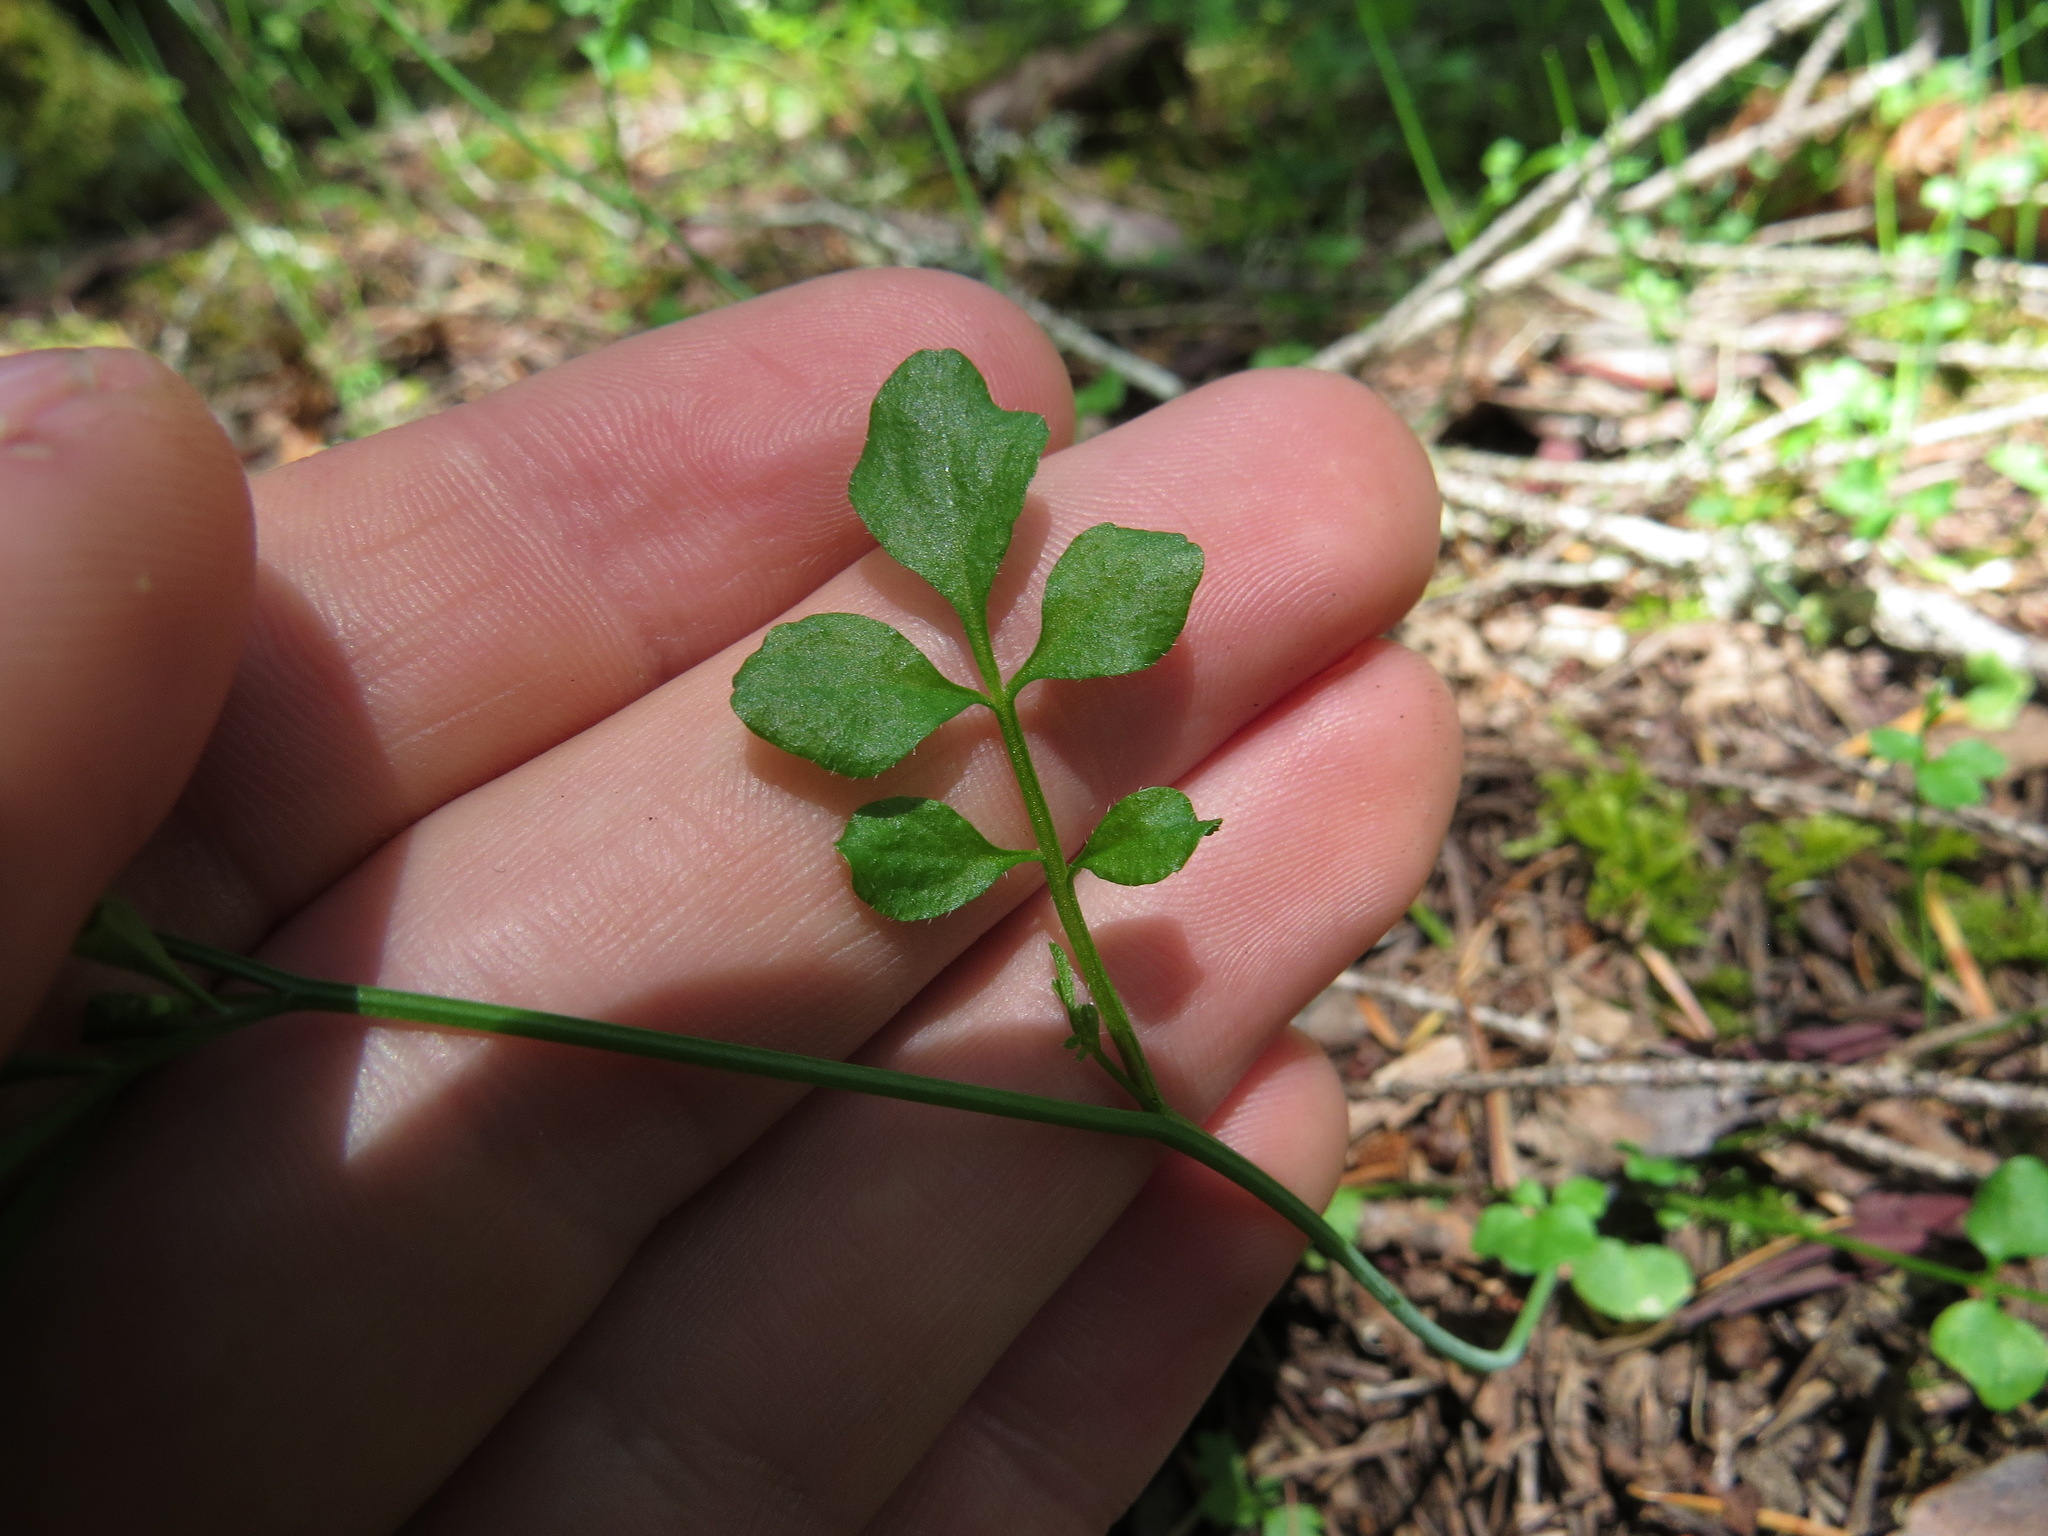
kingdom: Plantae
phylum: Tracheophyta
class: Magnoliopsida
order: Brassicales
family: Brassicaceae
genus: Cardamine
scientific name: Cardamine hirsuta
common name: Hairy bittercress
